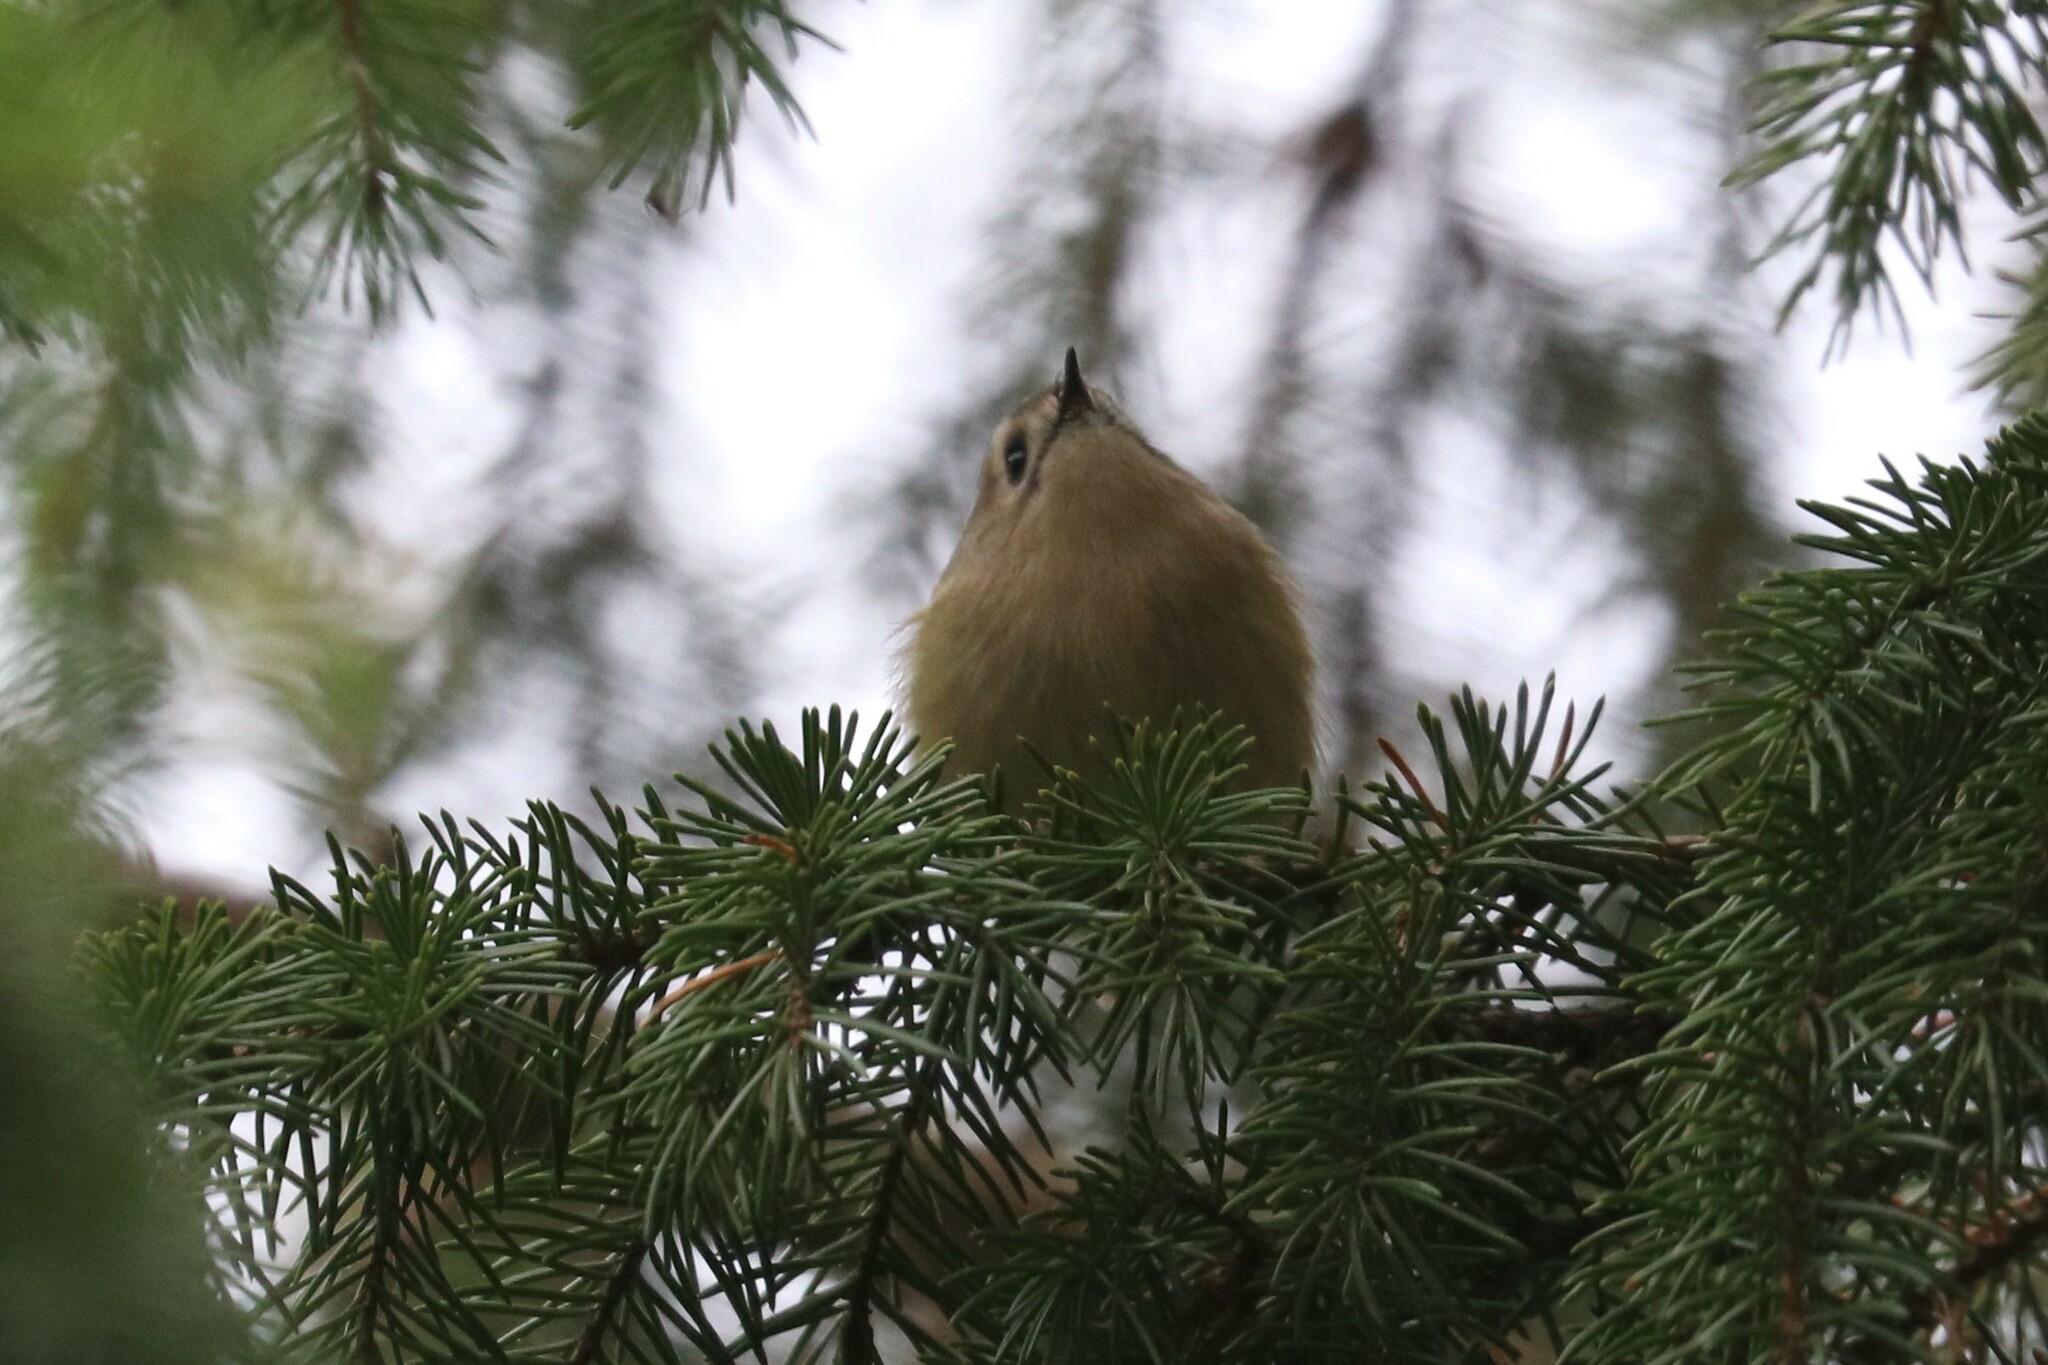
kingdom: Animalia
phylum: Chordata
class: Aves
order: Passeriformes
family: Regulidae
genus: Regulus
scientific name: Regulus regulus
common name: Goldcrest
